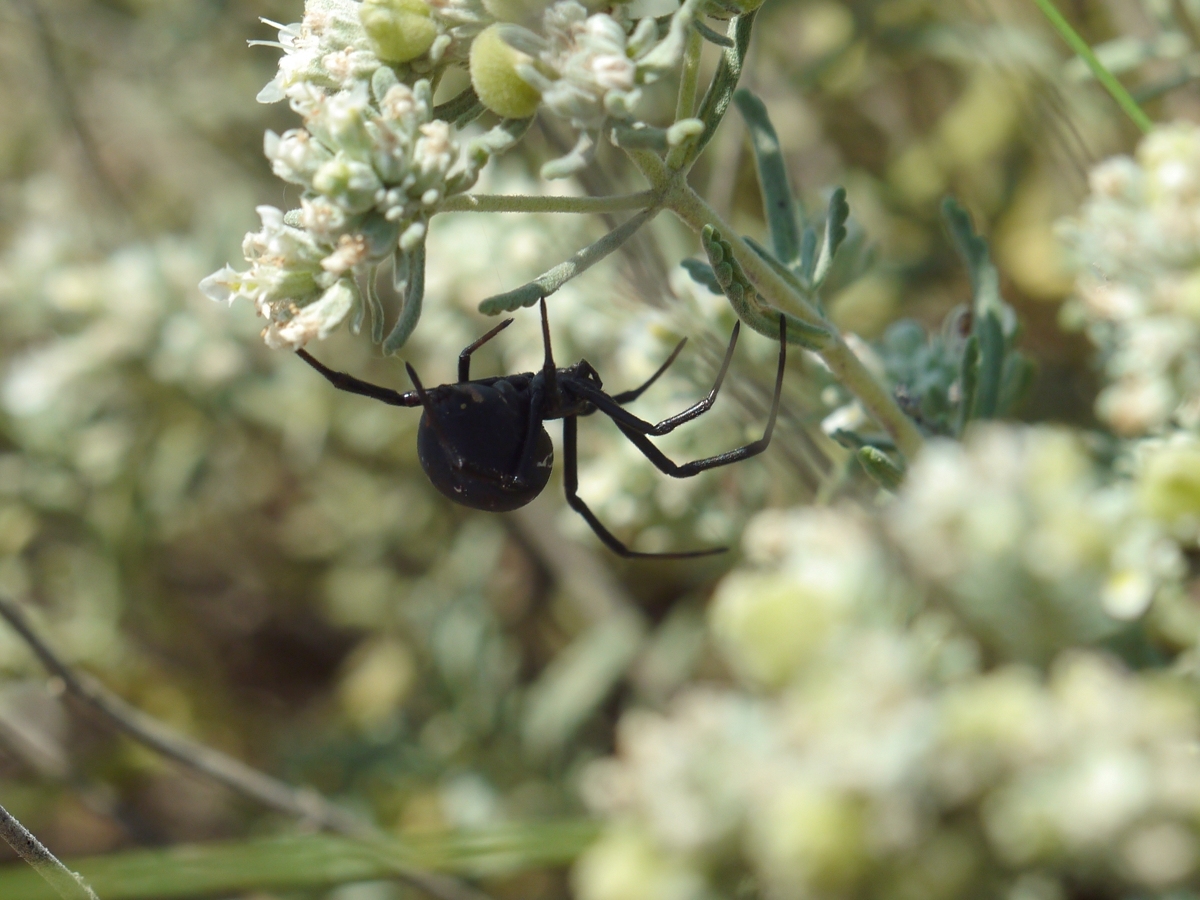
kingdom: Animalia
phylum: Arthropoda
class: Arachnida
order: Araneae
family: Theridiidae
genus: Latrodectus
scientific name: Latrodectus tredecimguttatus
